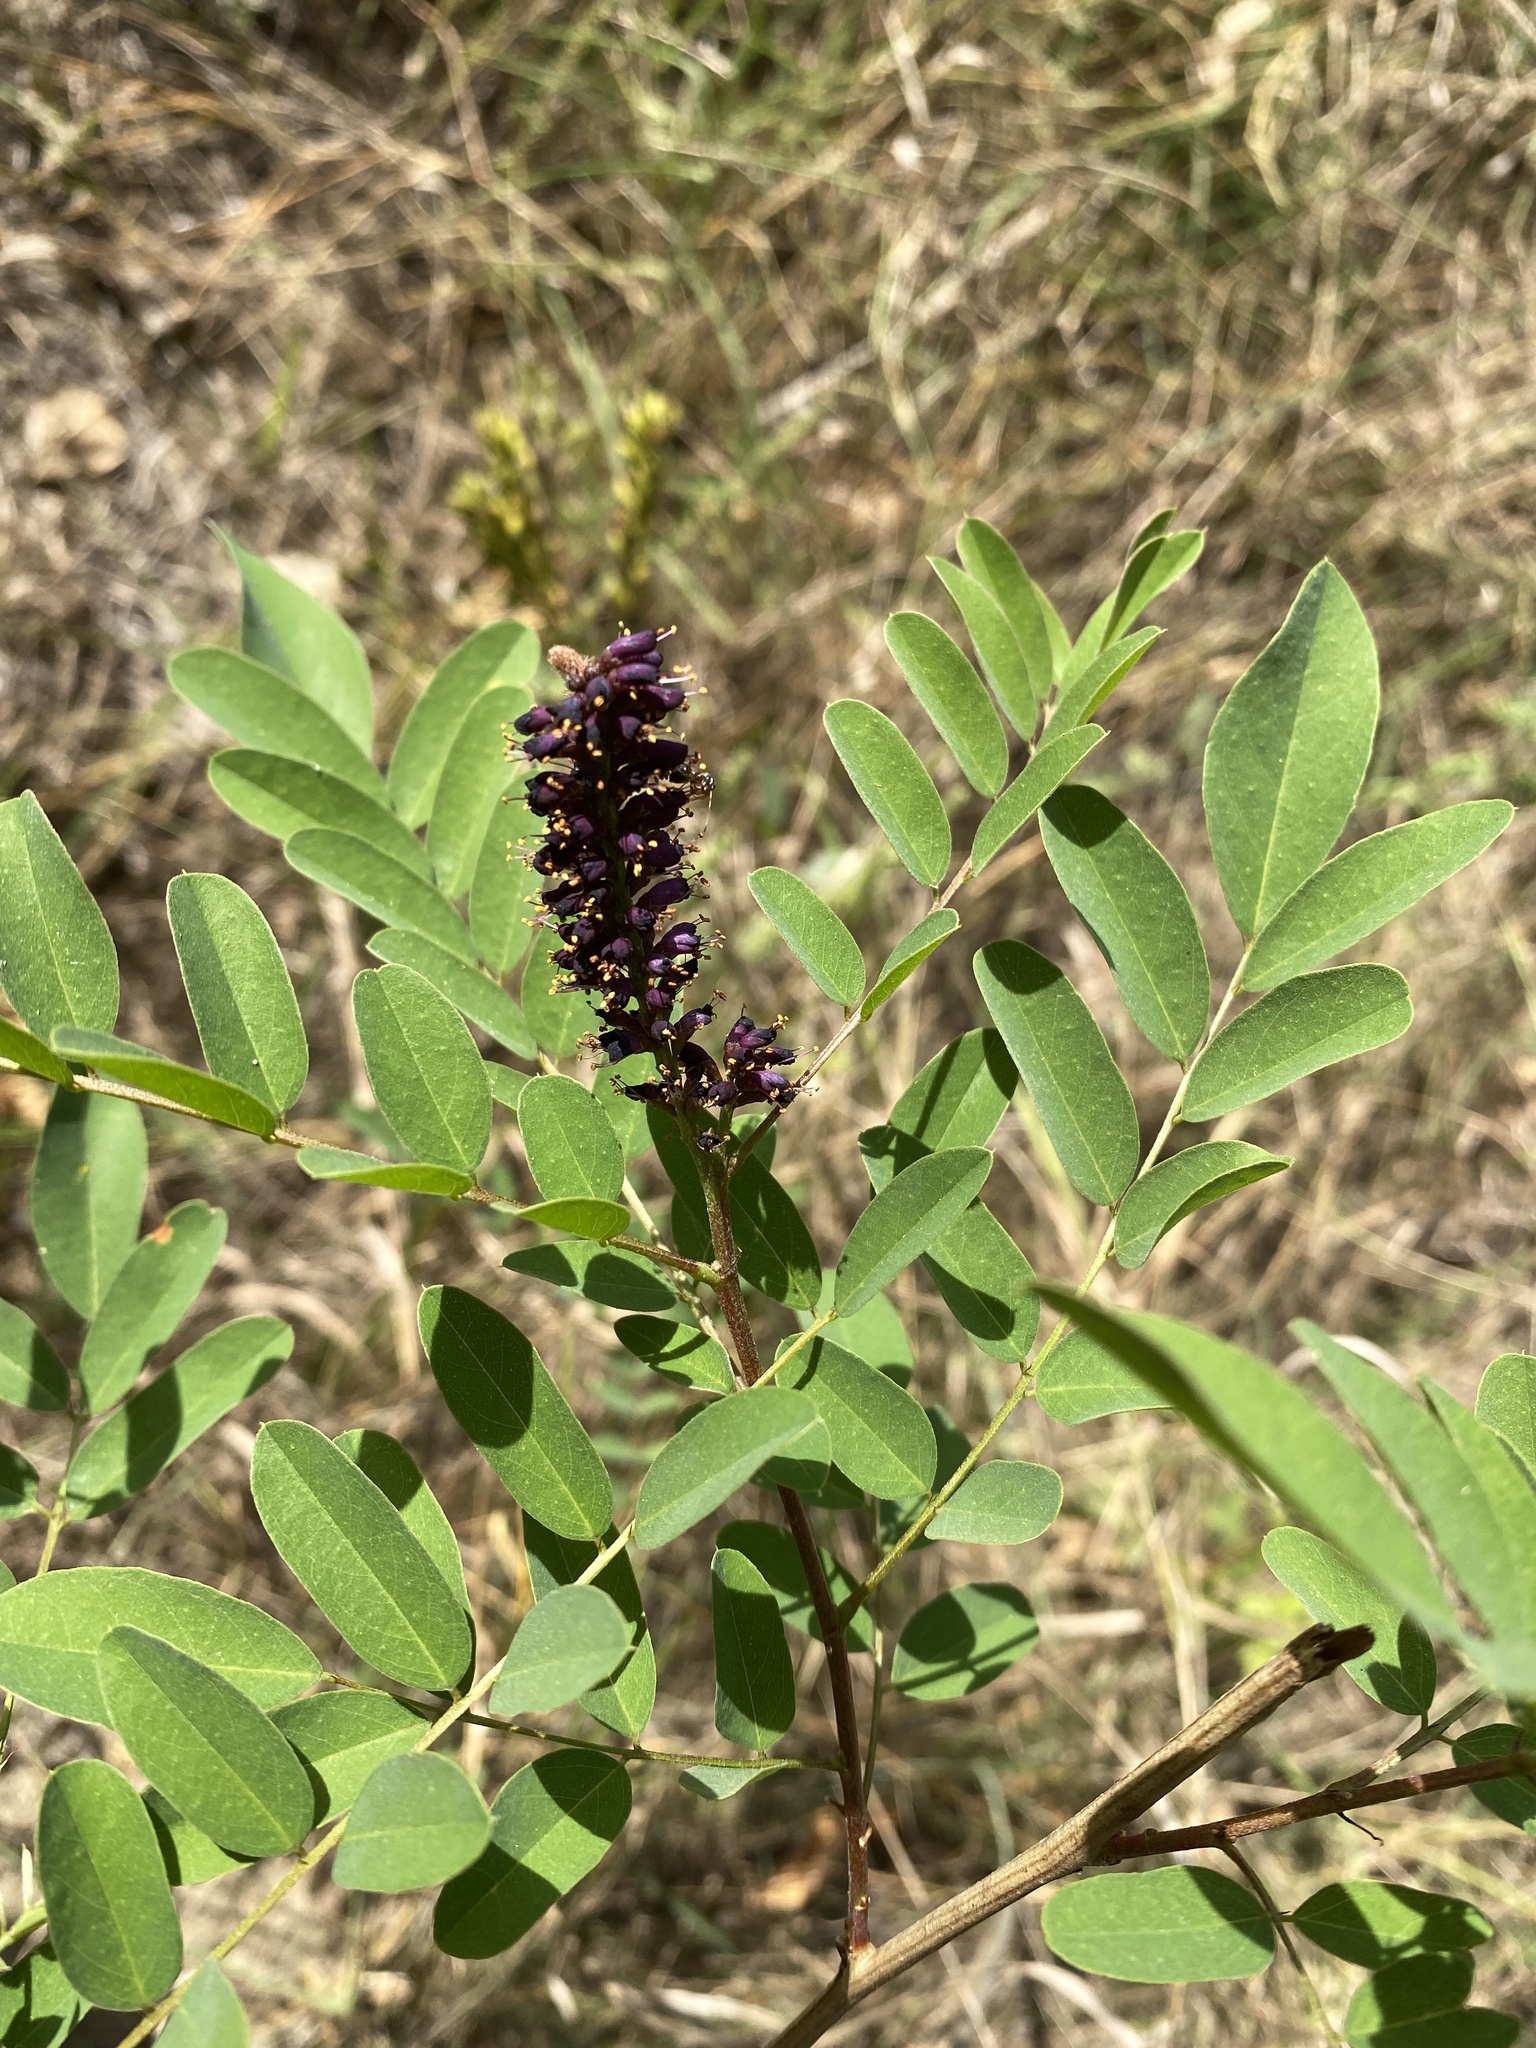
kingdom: Plantae
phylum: Tracheophyta
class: Magnoliopsida
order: Fabales
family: Fabaceae
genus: Amorpha
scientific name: Amorpha fruticosa
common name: False indigo
